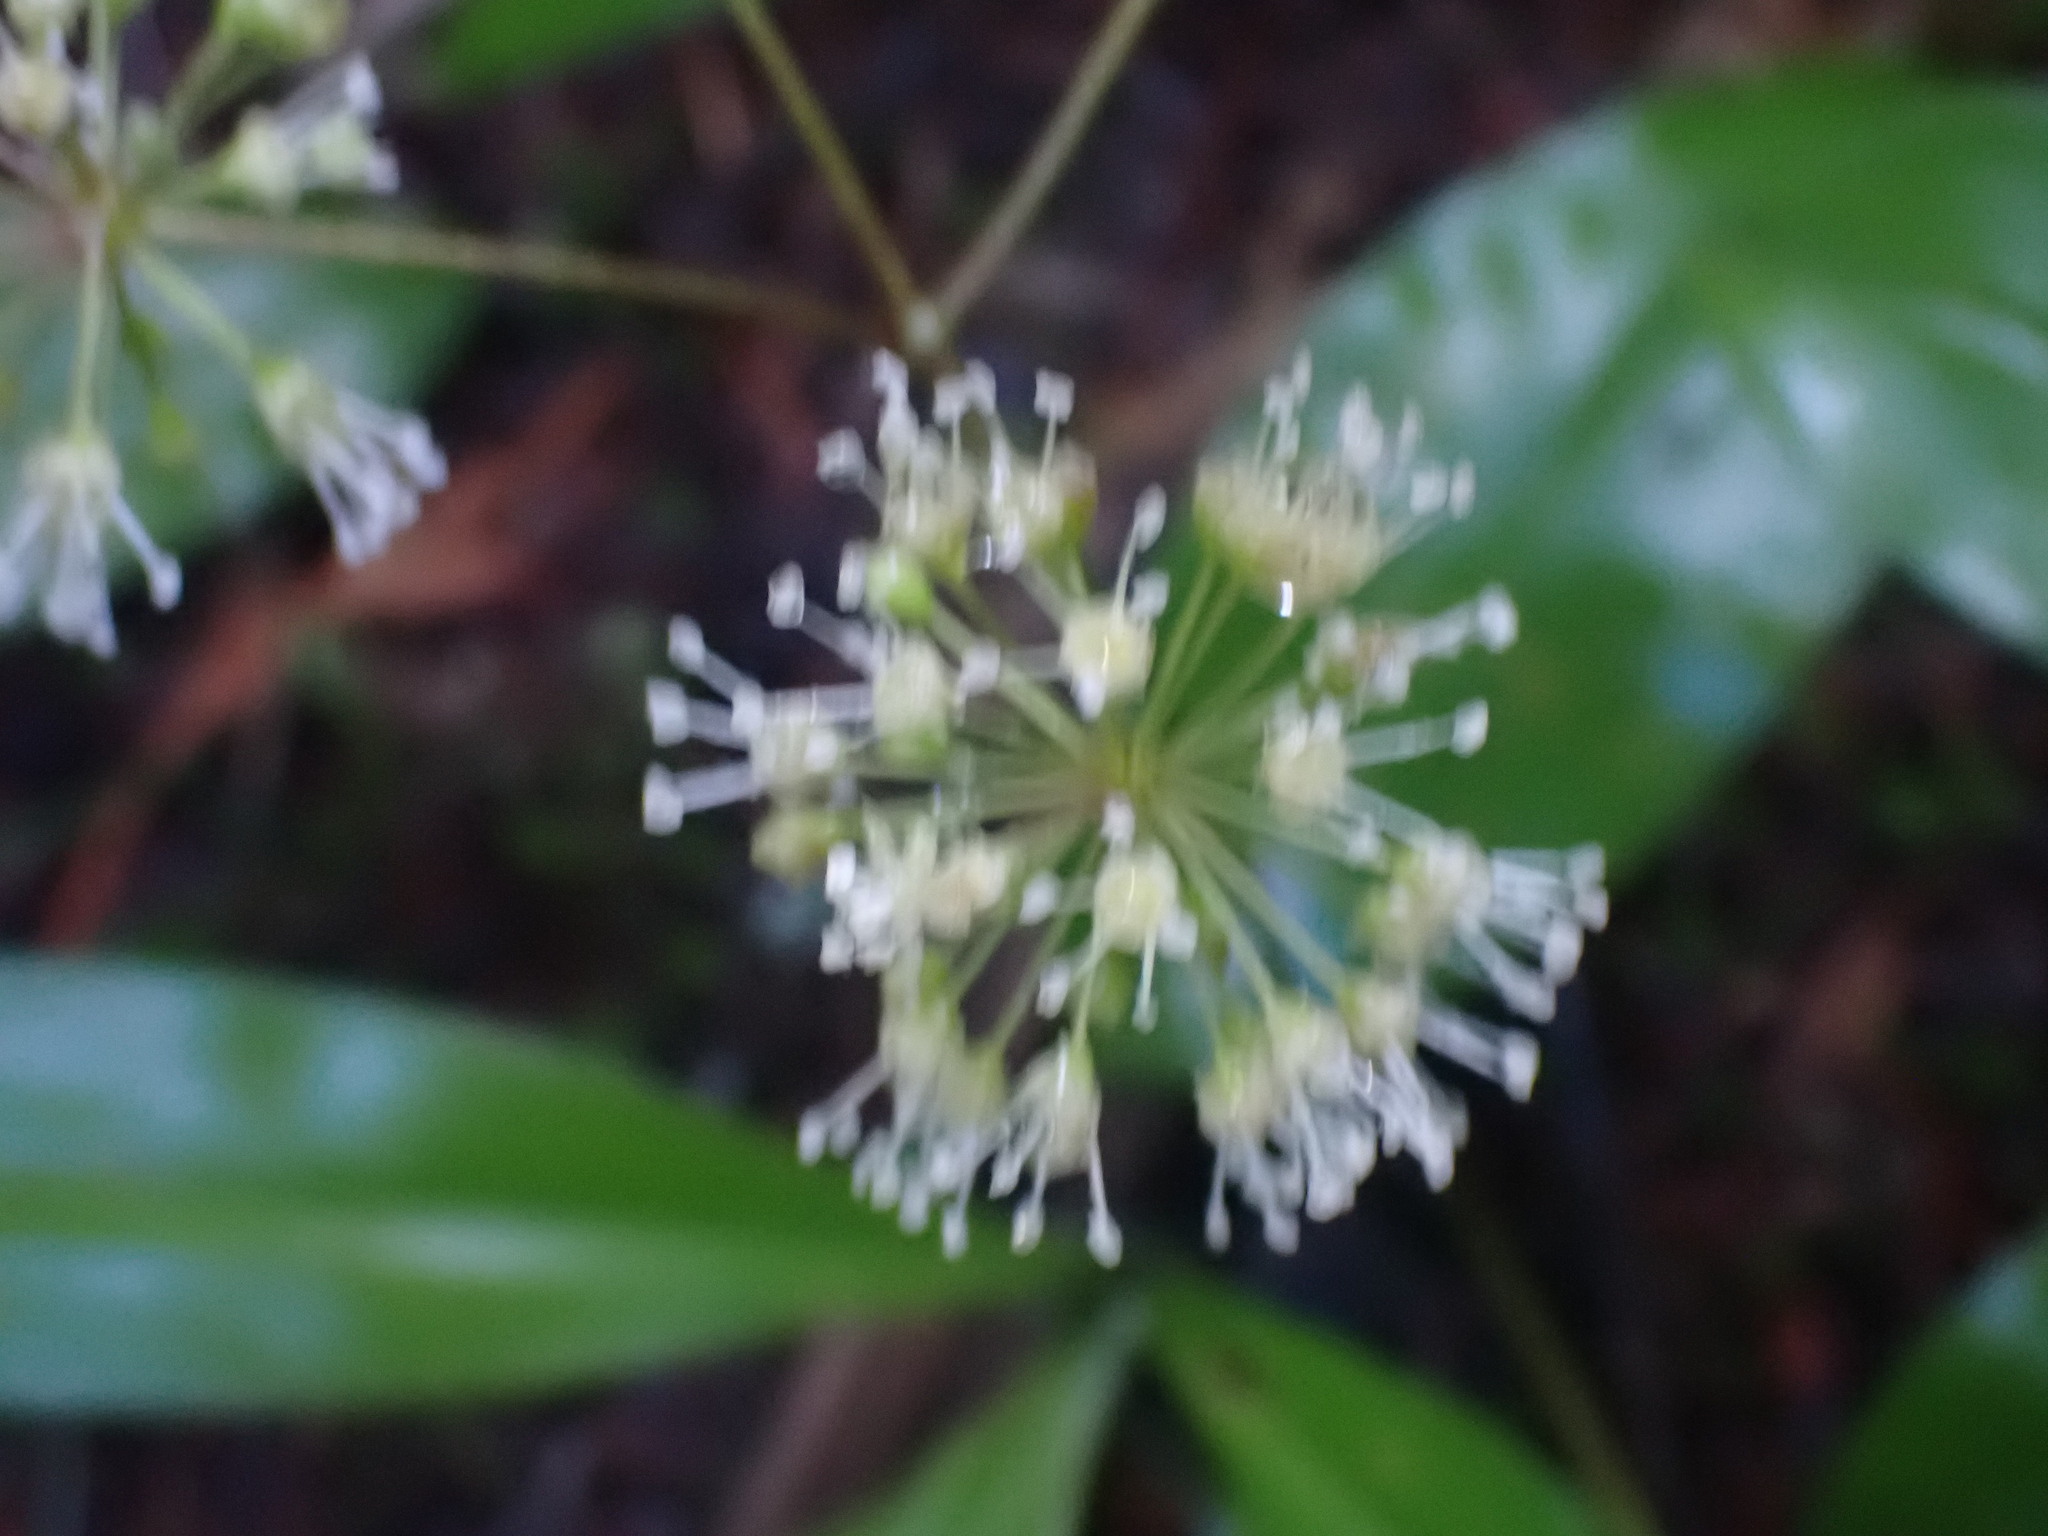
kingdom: Plantae
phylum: Tracheophyta
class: Magnoliopsida
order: Apiales
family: Araliaceae
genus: Aralia
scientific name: Aralia nudicaulis
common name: Wild sarsaparilla
